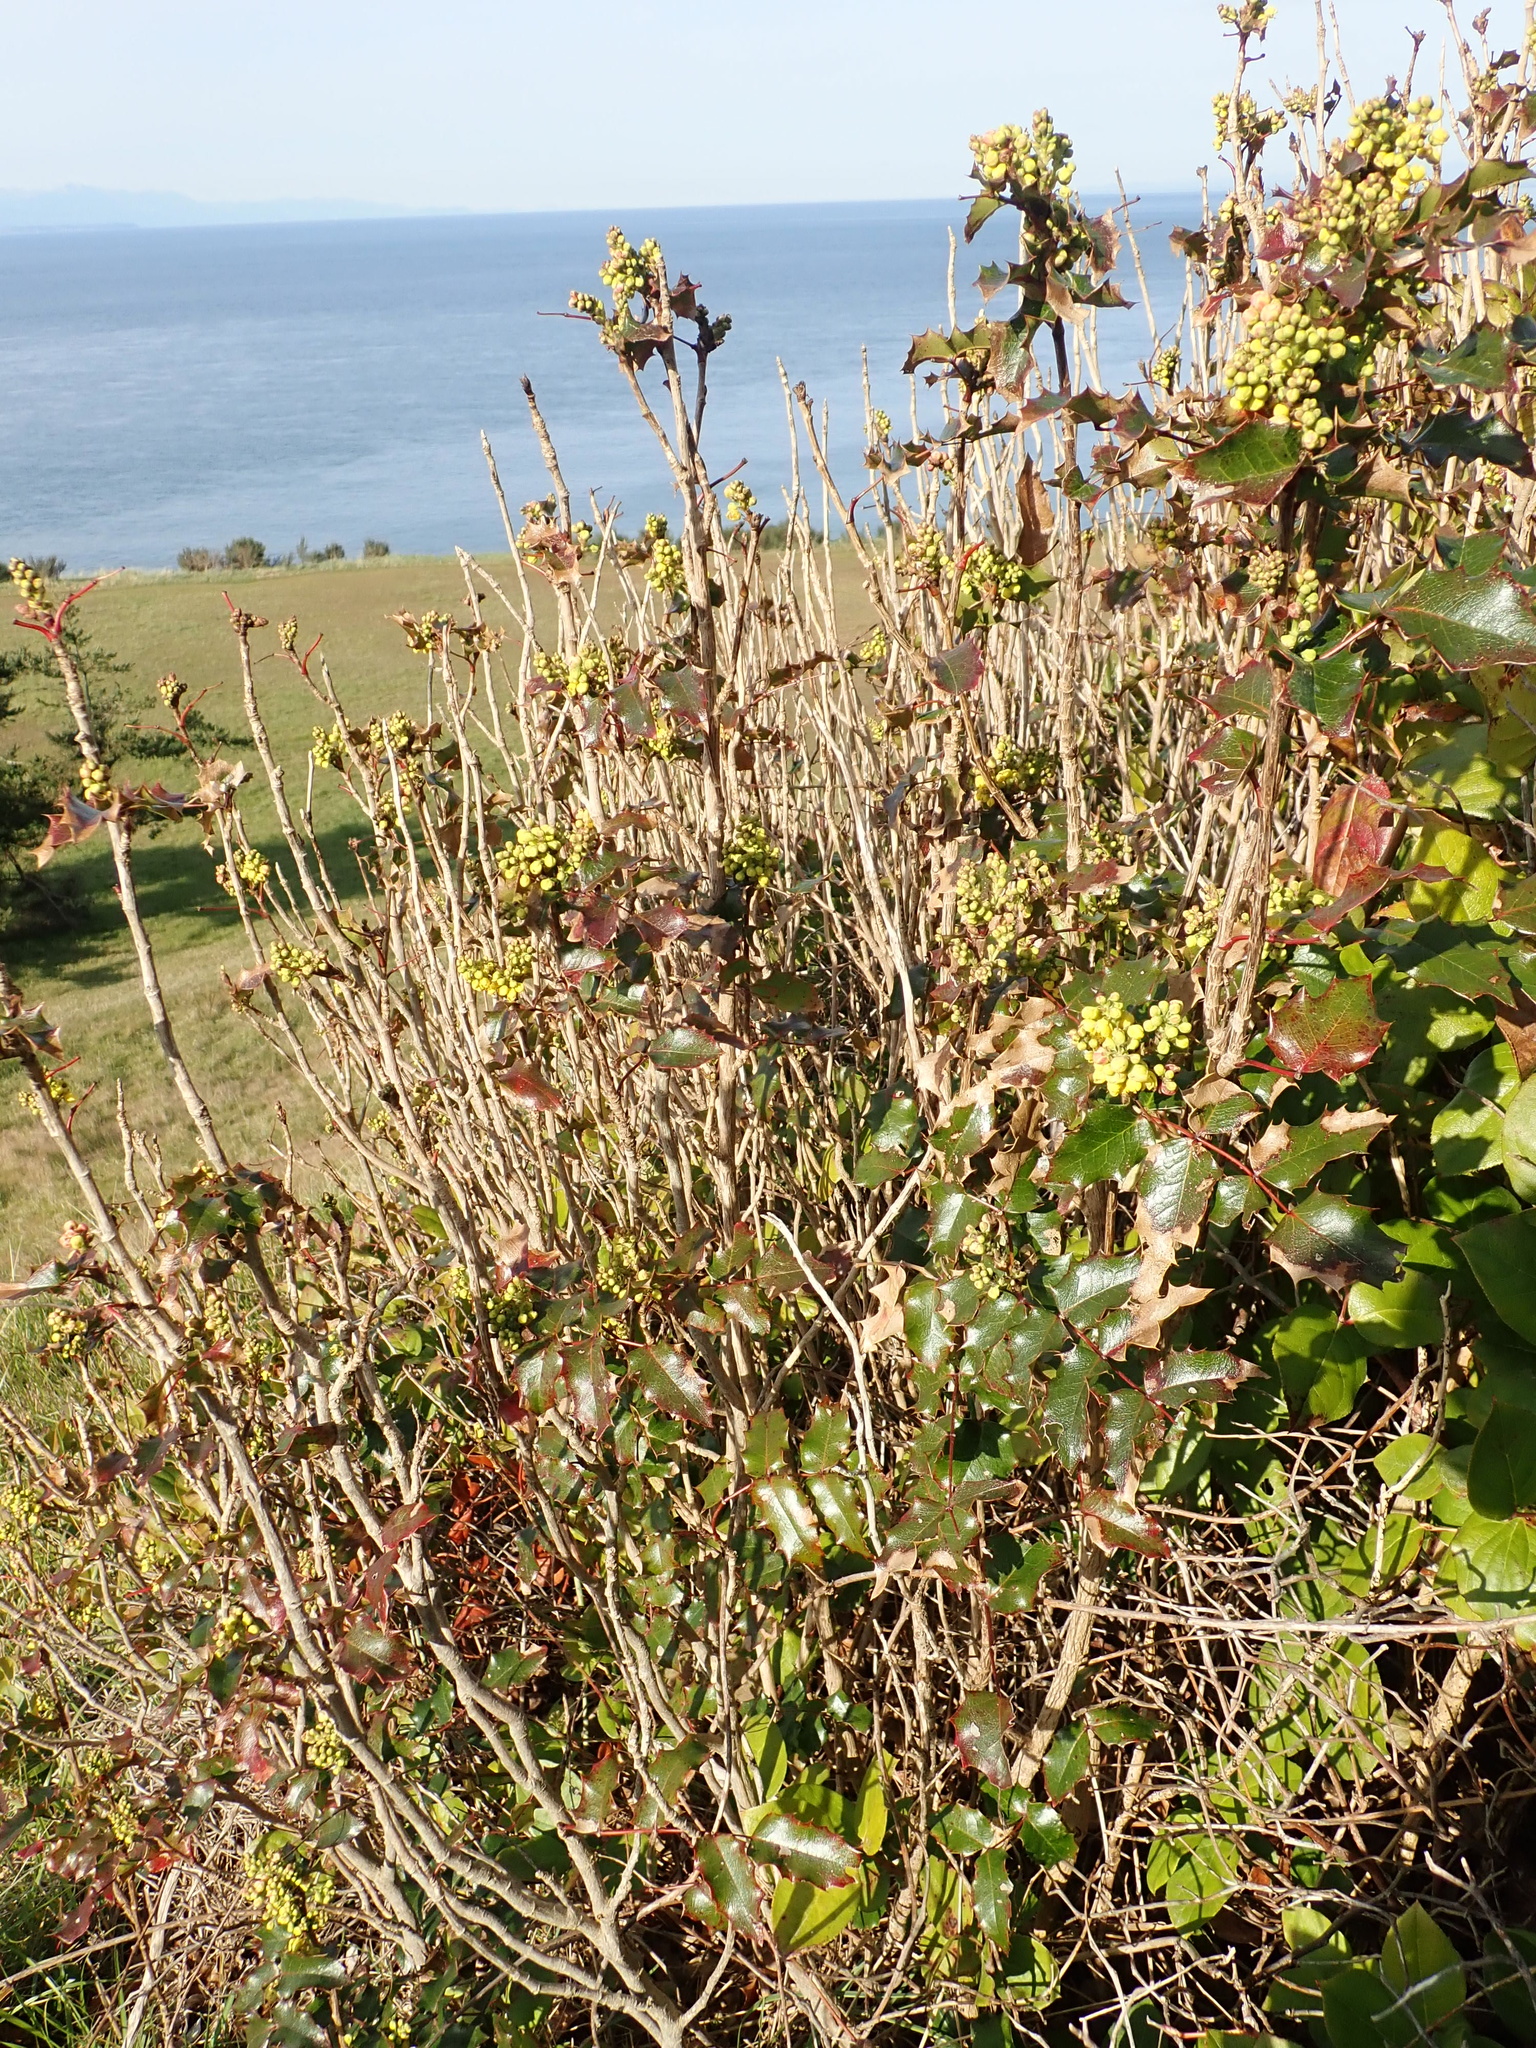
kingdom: Plantae
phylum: Tracheophyta
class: Magnoliopsida
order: Ranunculales
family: Berberidaceae
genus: Mahonia
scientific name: Mahonia aquifolium
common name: Oregon-grape
